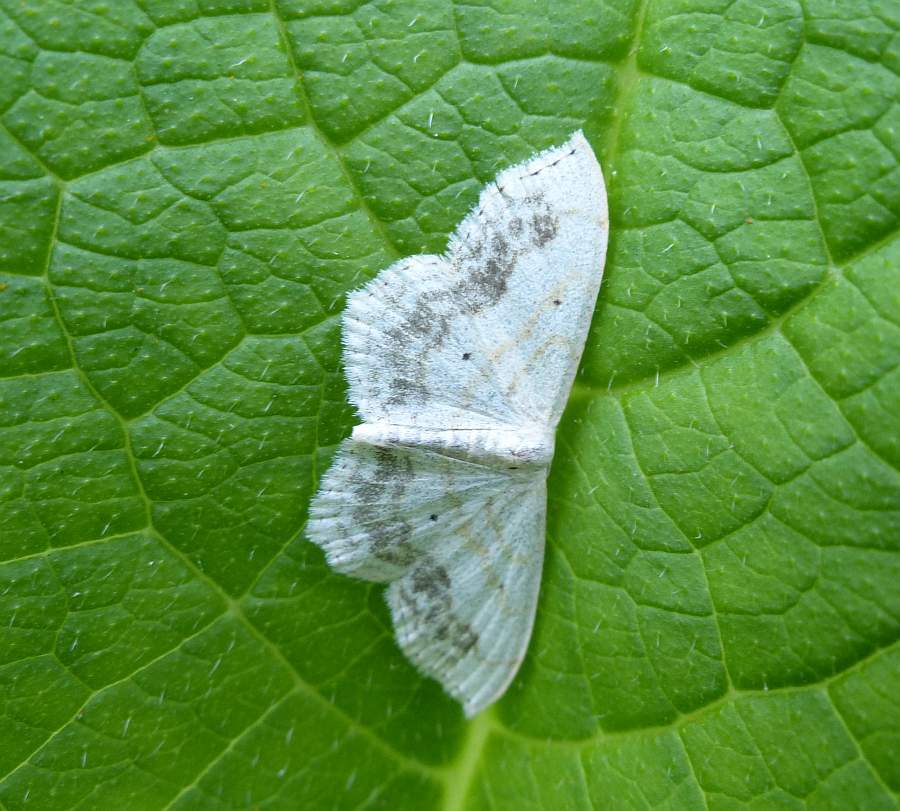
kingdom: Animalia
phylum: Arthropoda
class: Insecta
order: Lepidoptera
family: Geometridae
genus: Scopula
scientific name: Scopula limboundata
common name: Large lace border
